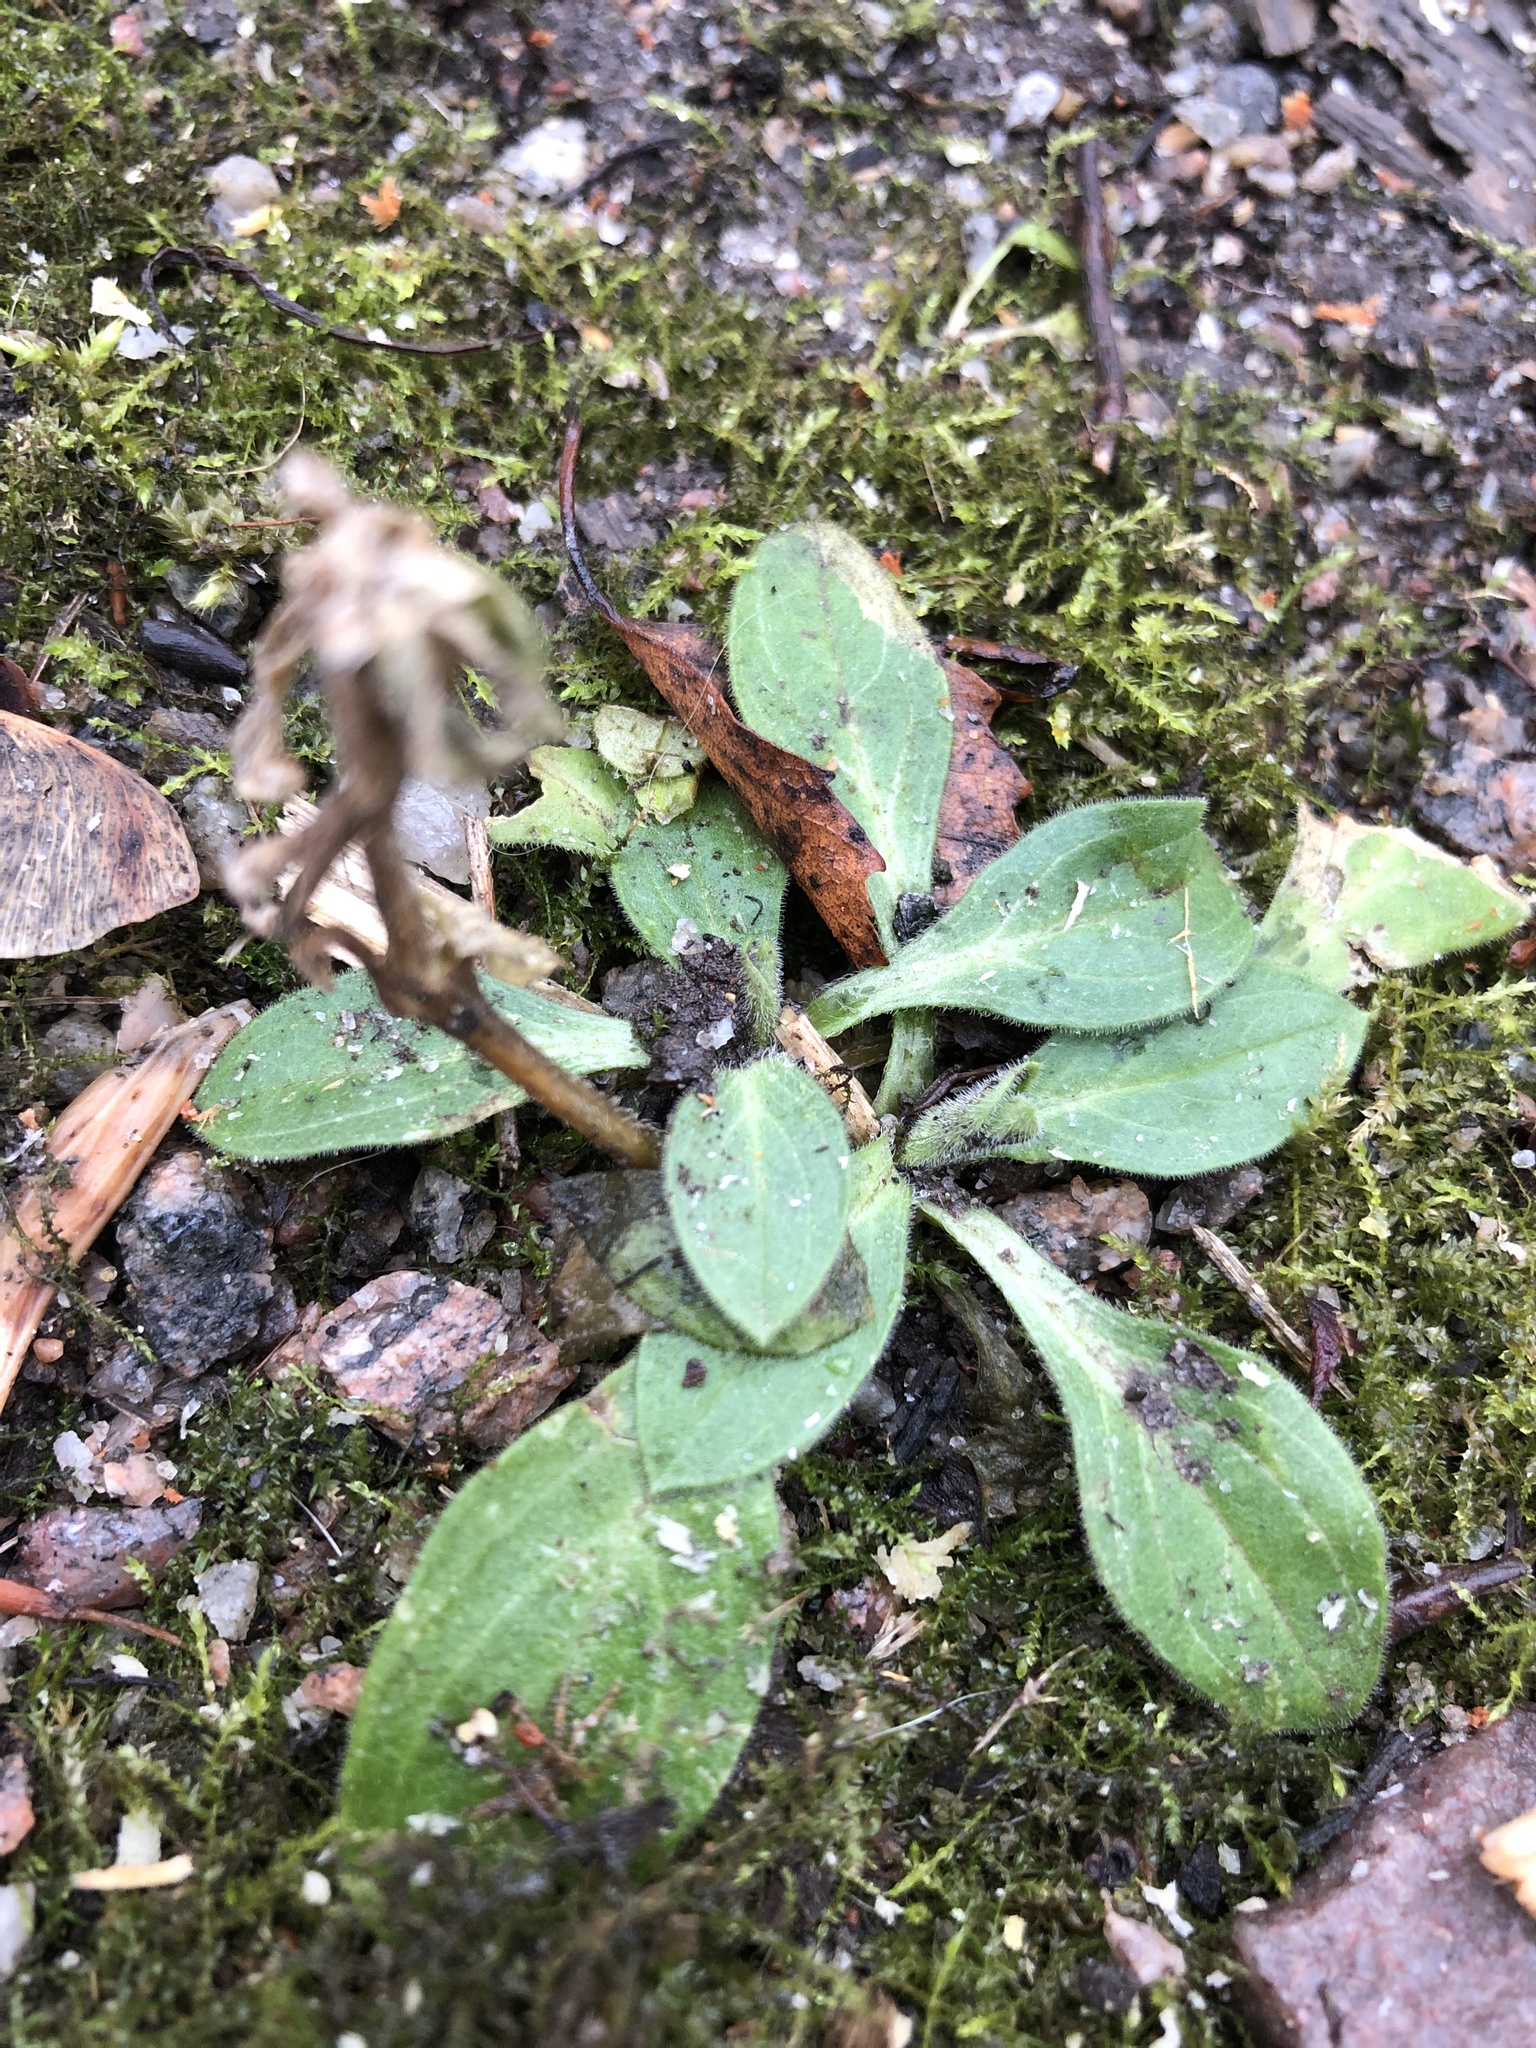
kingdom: Plantae
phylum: Tracheophyta
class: Magnoliopsida
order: Caryophyllales
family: Caryophyllaceae
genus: Silene
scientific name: Silene latifolia
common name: White campion
